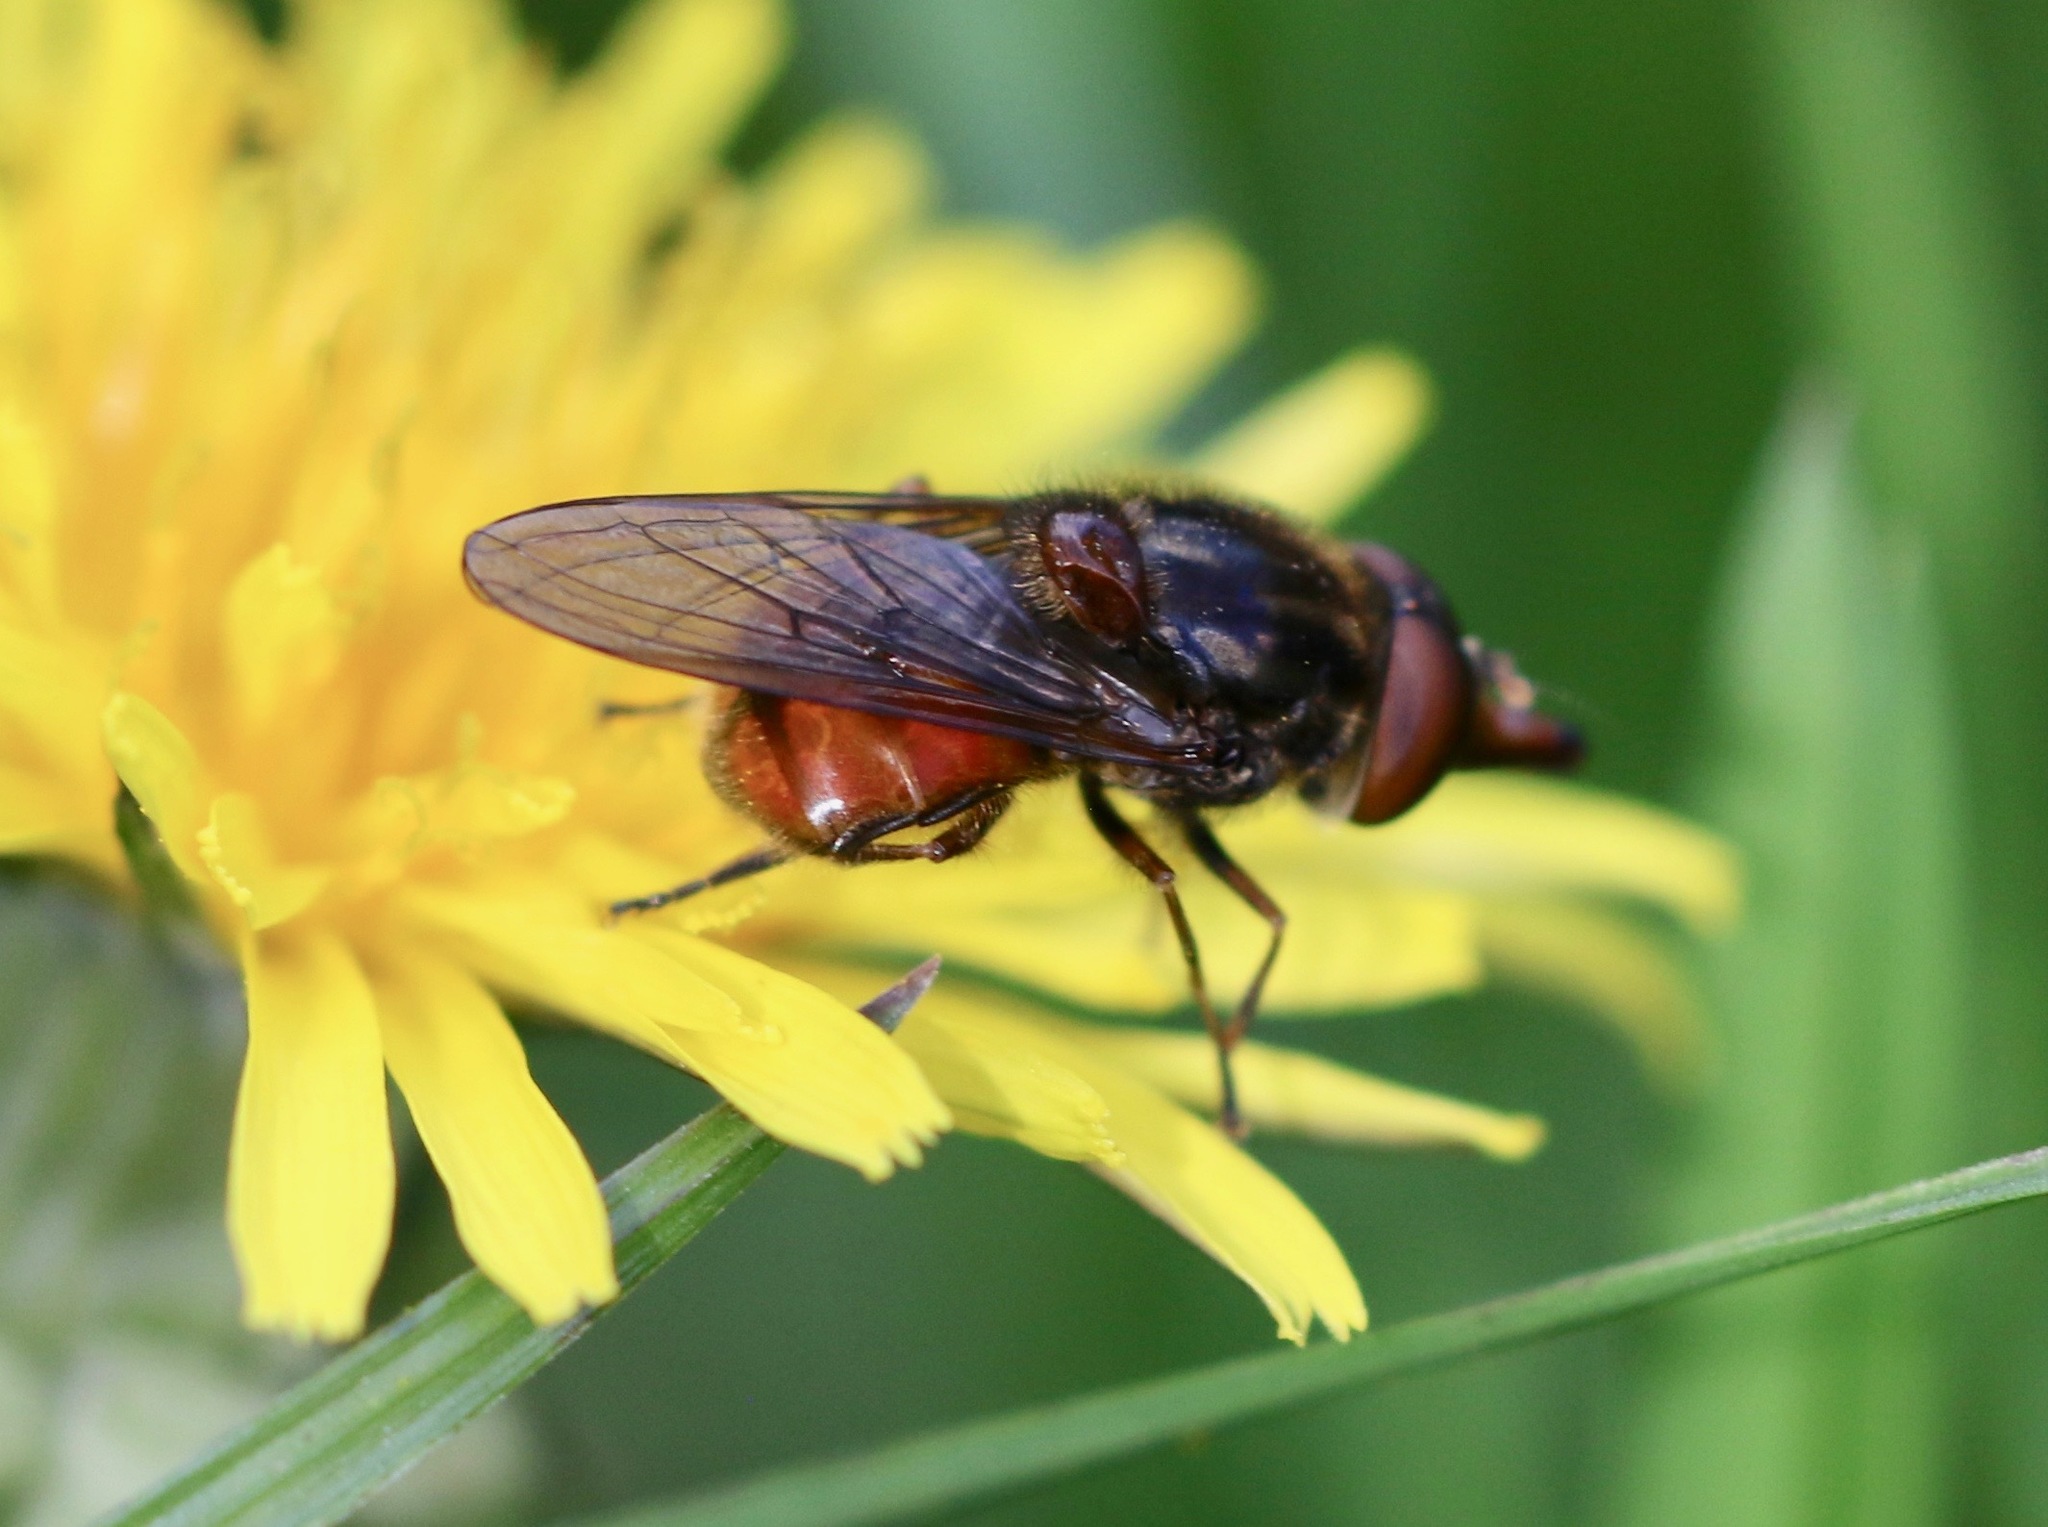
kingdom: Animalia
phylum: Arthropoda
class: Insecta
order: Diptera
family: Syrphidae
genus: Rhingia
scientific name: Rhingia campestris
